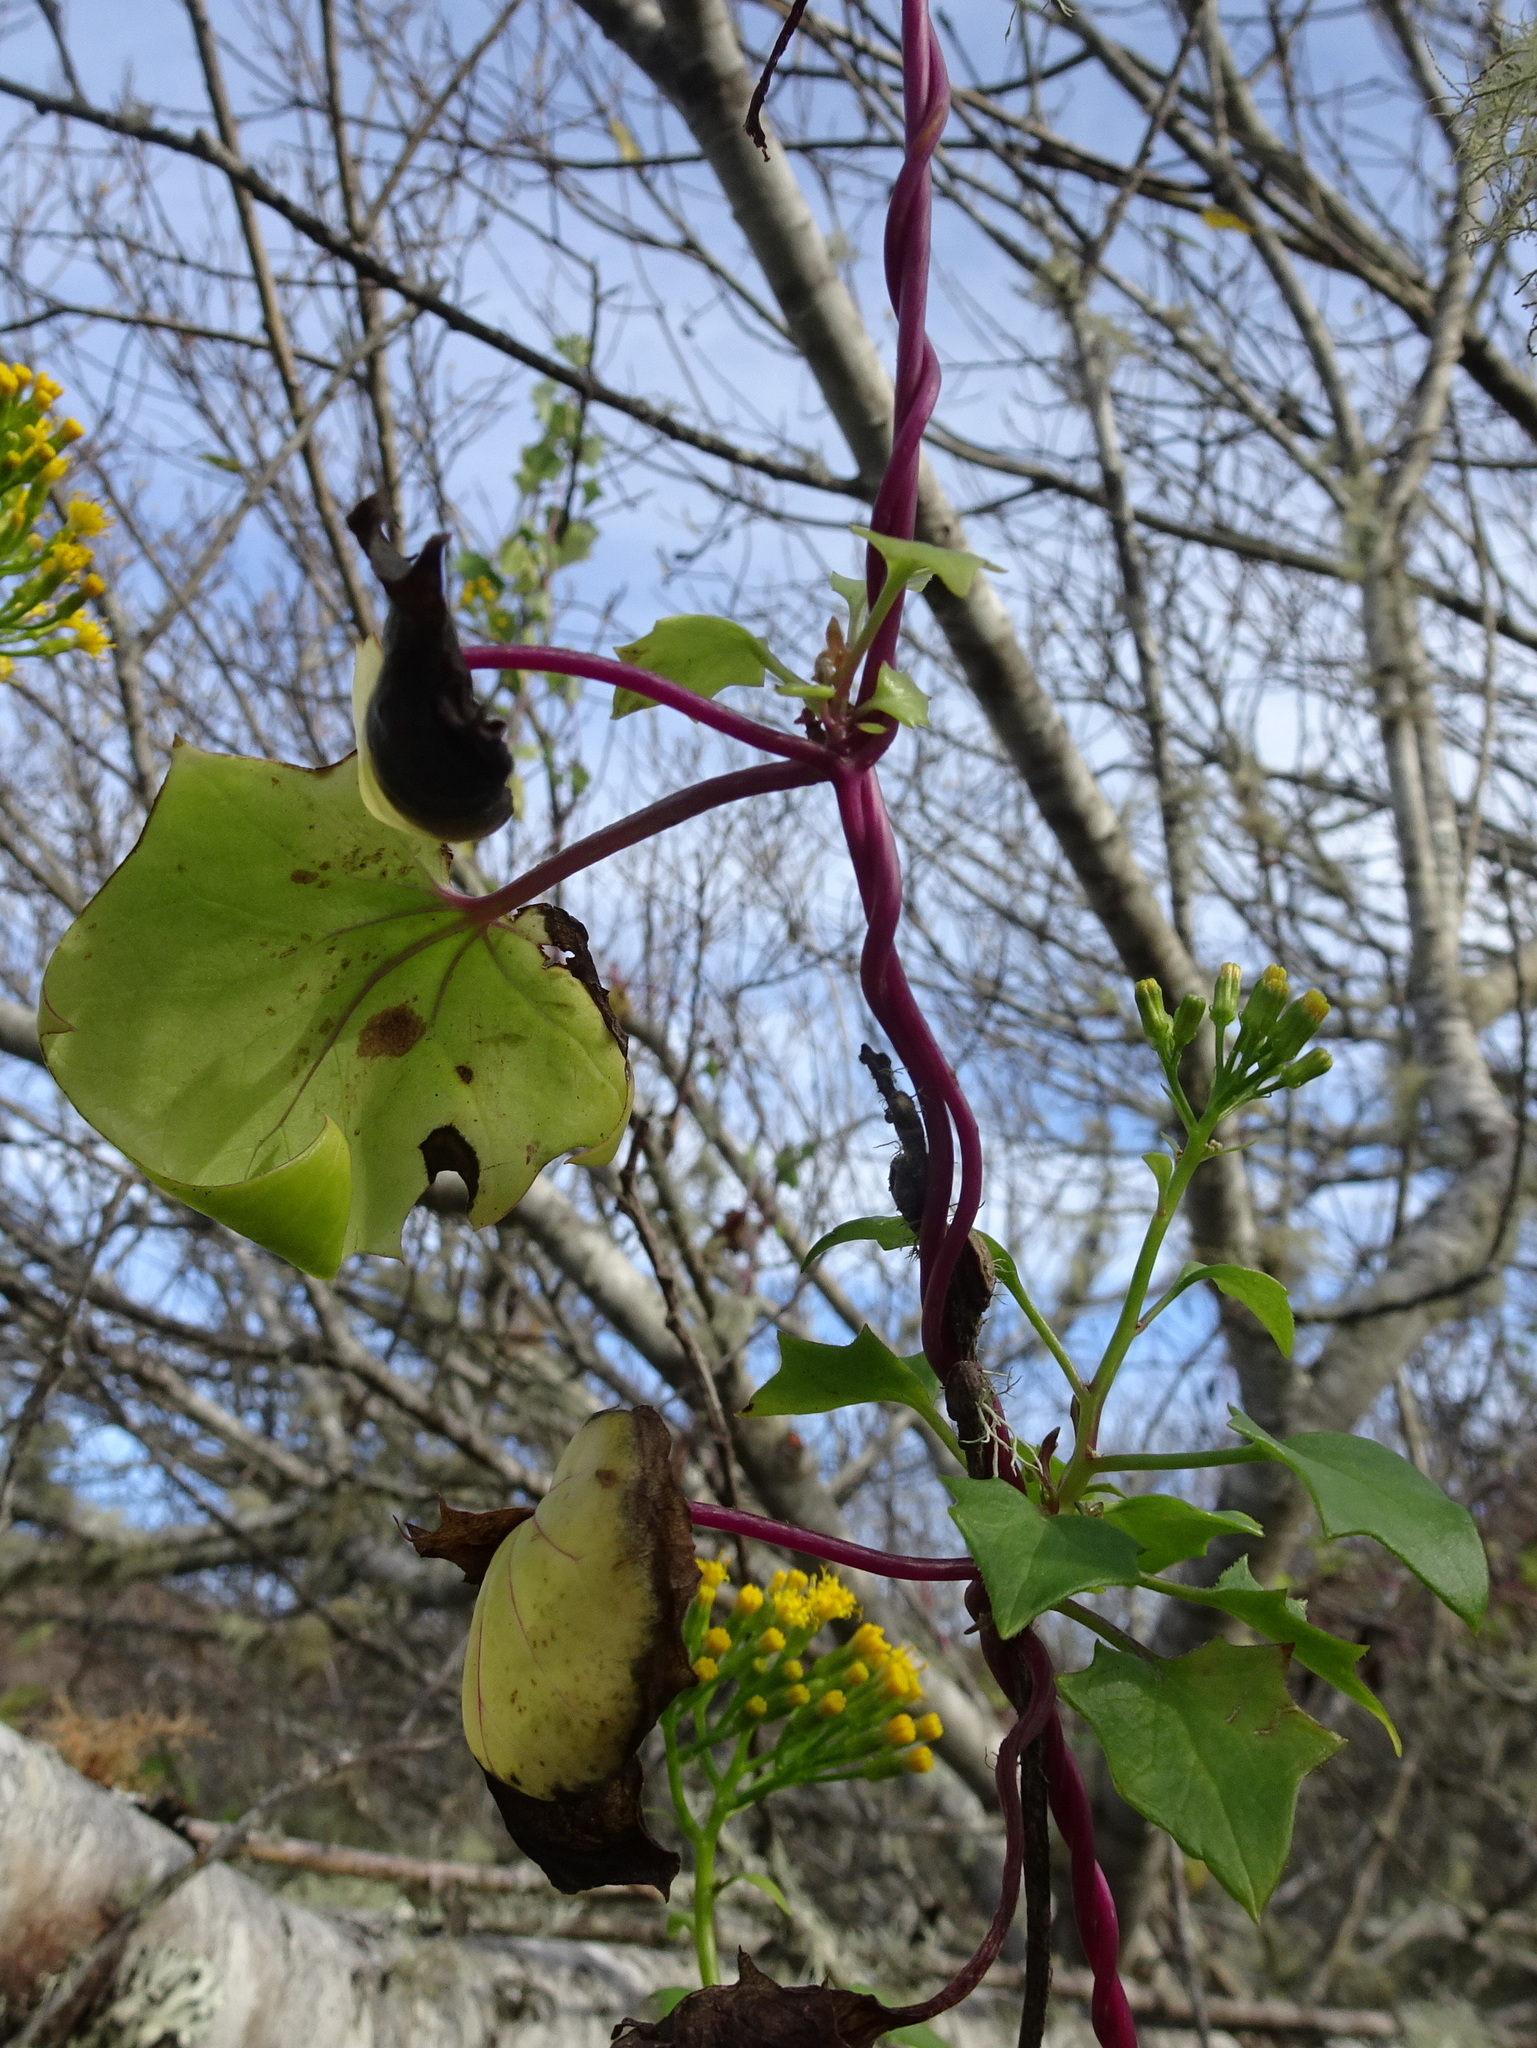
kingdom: Plantae
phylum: Tracheophyta
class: Magnoliopsida
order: Asterales
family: Asteraceae
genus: Delairea
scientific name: Delairea odorata
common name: Cape-ivy
